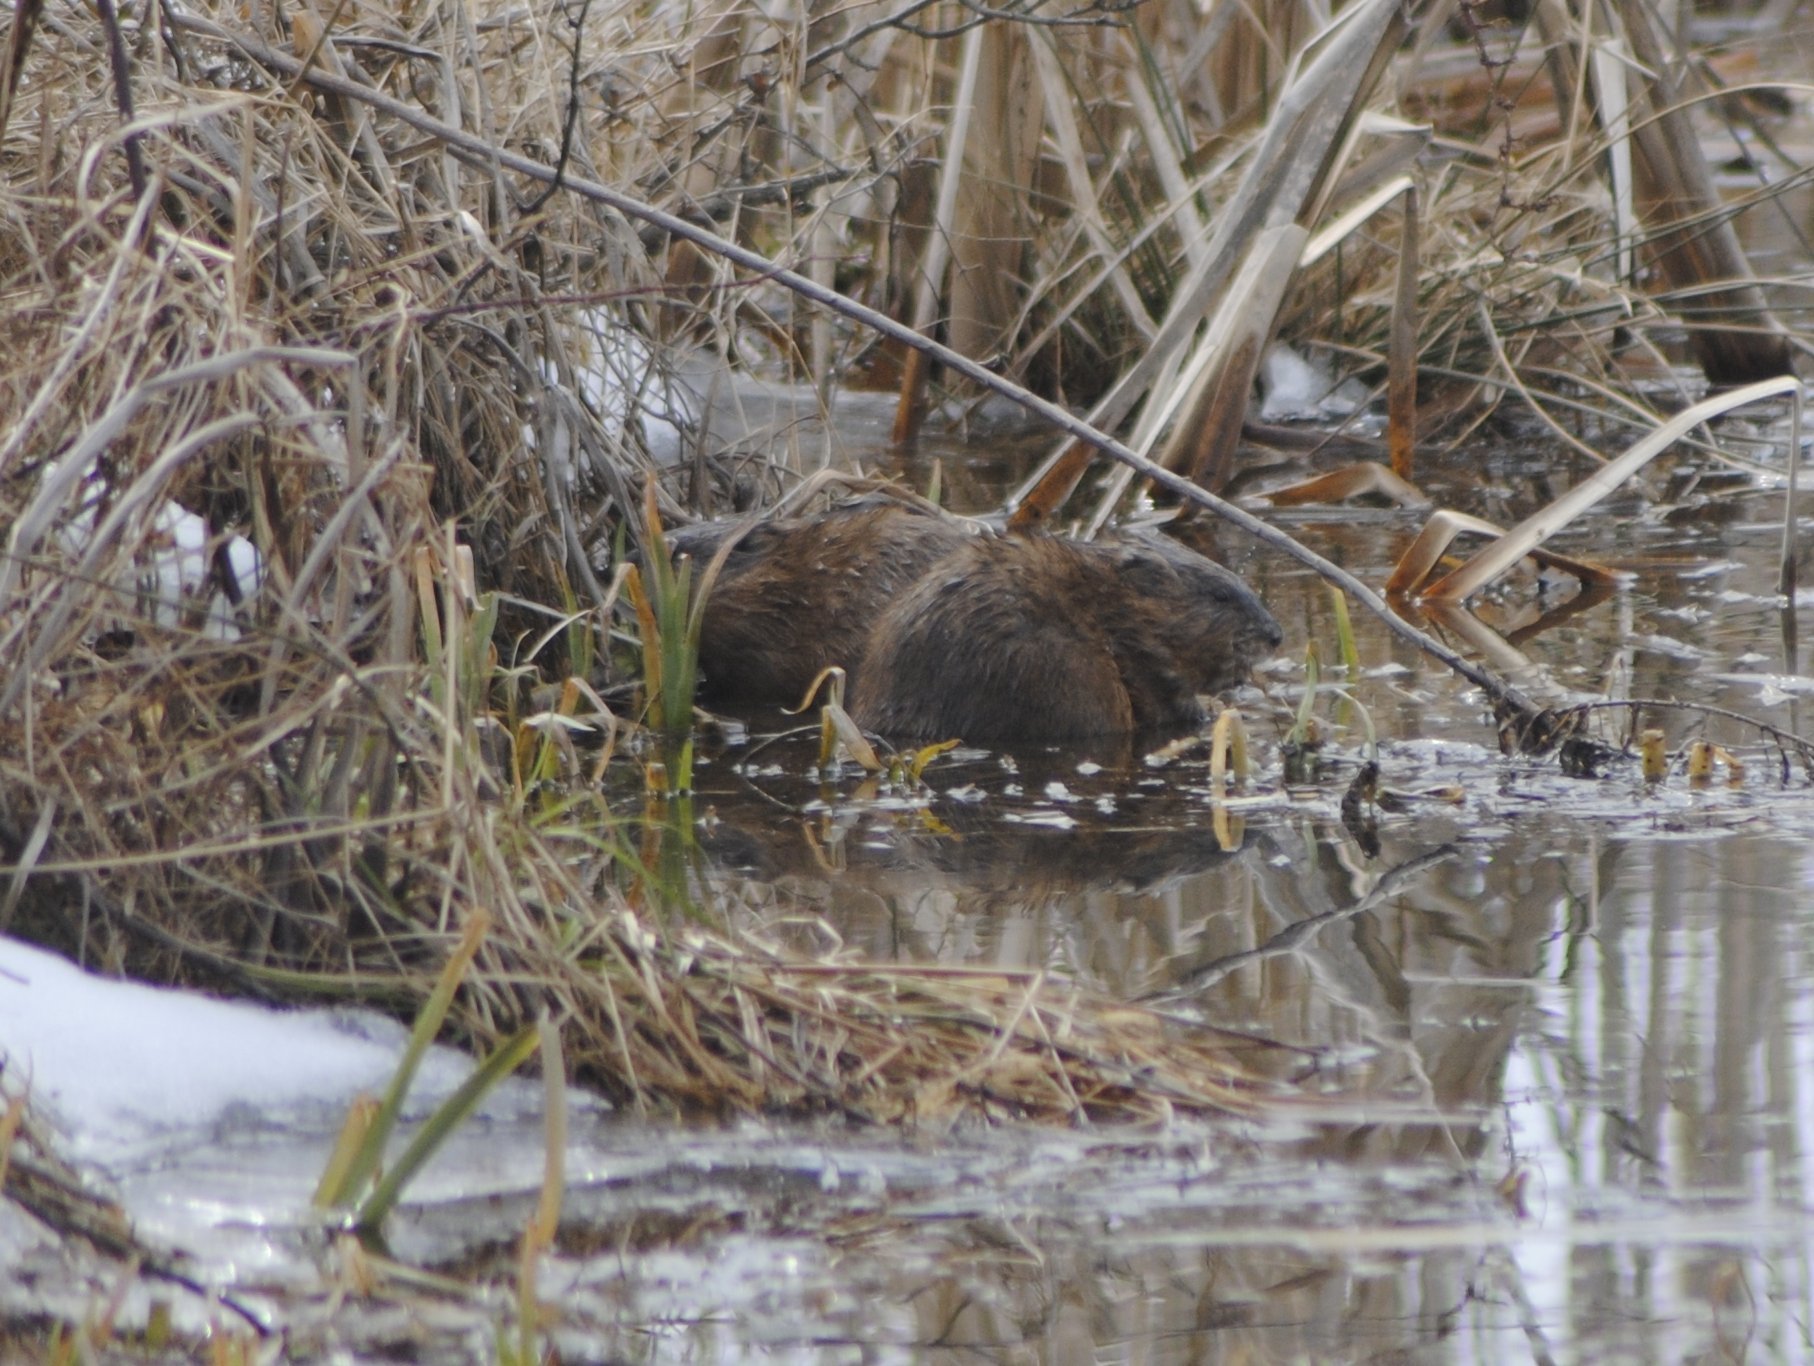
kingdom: Animalia
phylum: Chordata
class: Mammalia
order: Rodentia
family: Cricetidae
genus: Ondatra
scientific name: Ondatra zibethicus
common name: Muskrat
